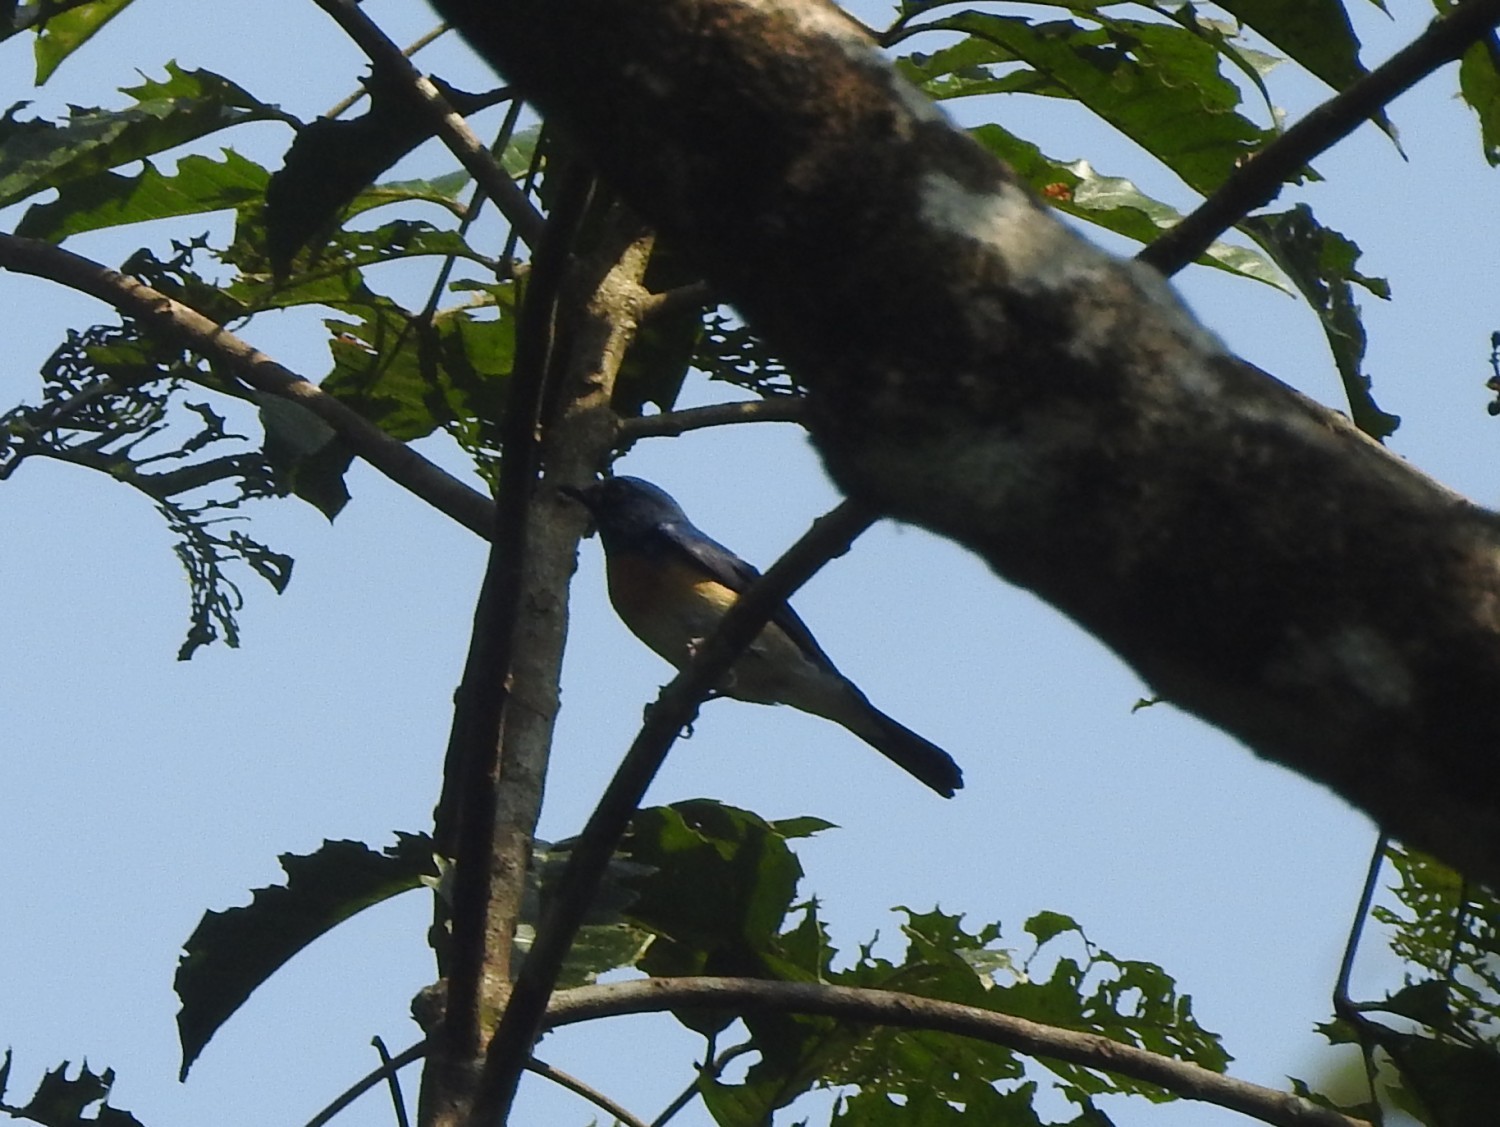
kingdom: Animalia
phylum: Chordata
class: Aves
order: Passeriformes
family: Muscicapidae
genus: Cyornis
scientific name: Cyornis rubeculoides
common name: Blue-throated blue flycatcher
